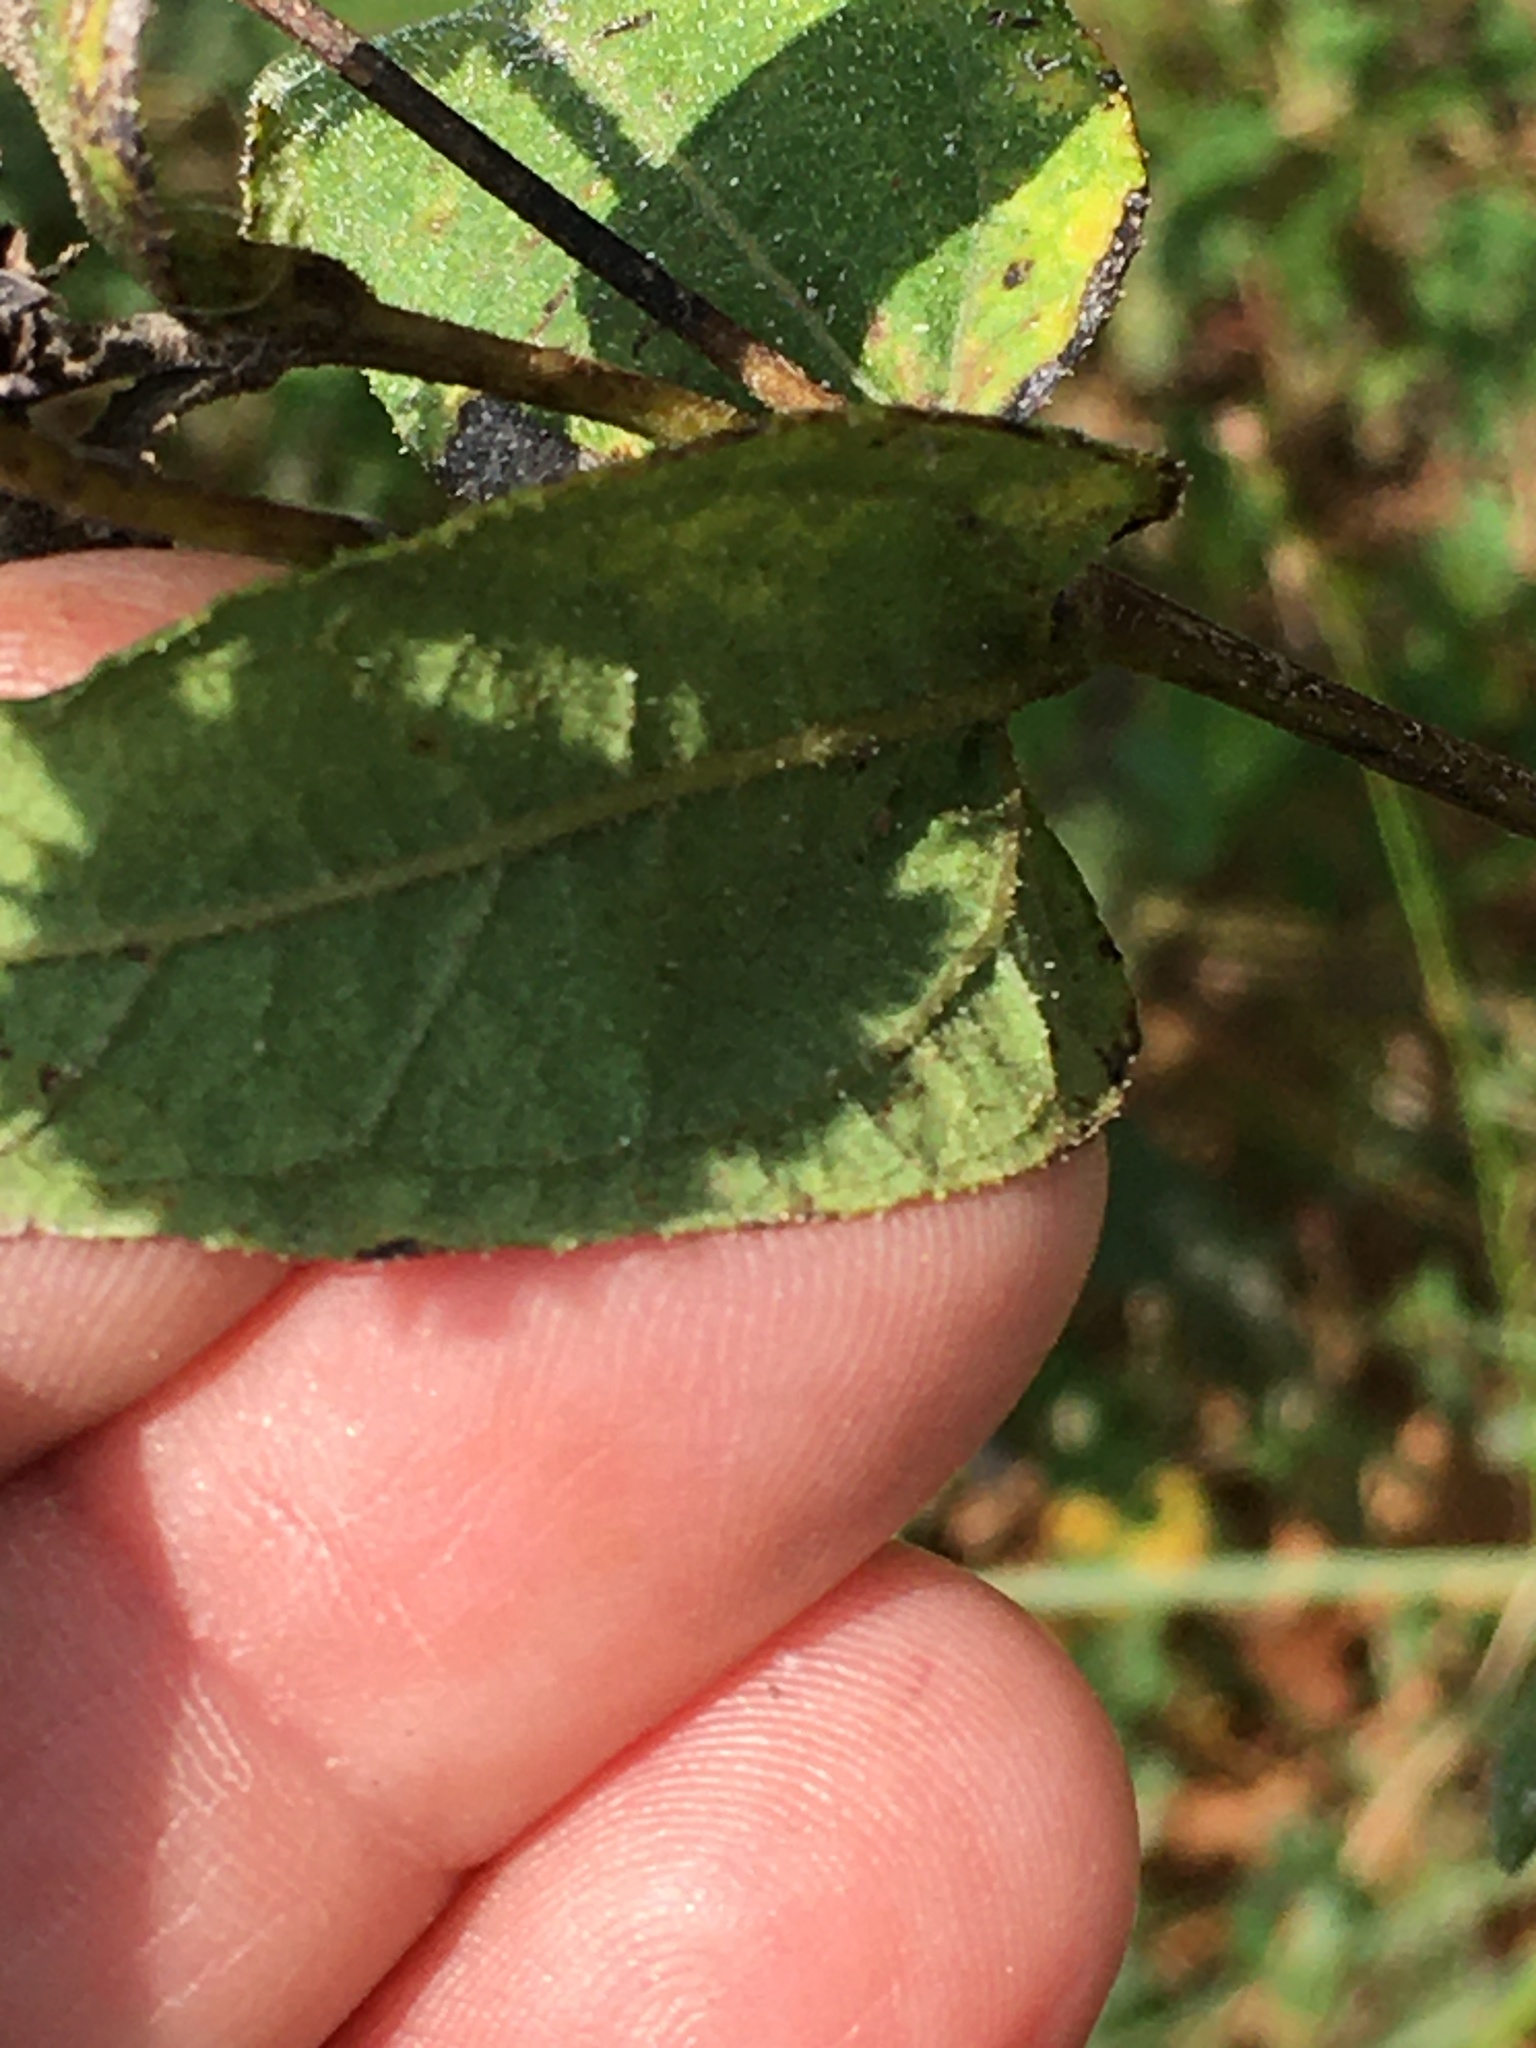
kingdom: Plantae
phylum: Tracheophyta
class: Magnoliopsida
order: Asterales
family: Asteraceae
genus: Helianthus
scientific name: Helianthus hirsutus
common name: Hairy sunflower
